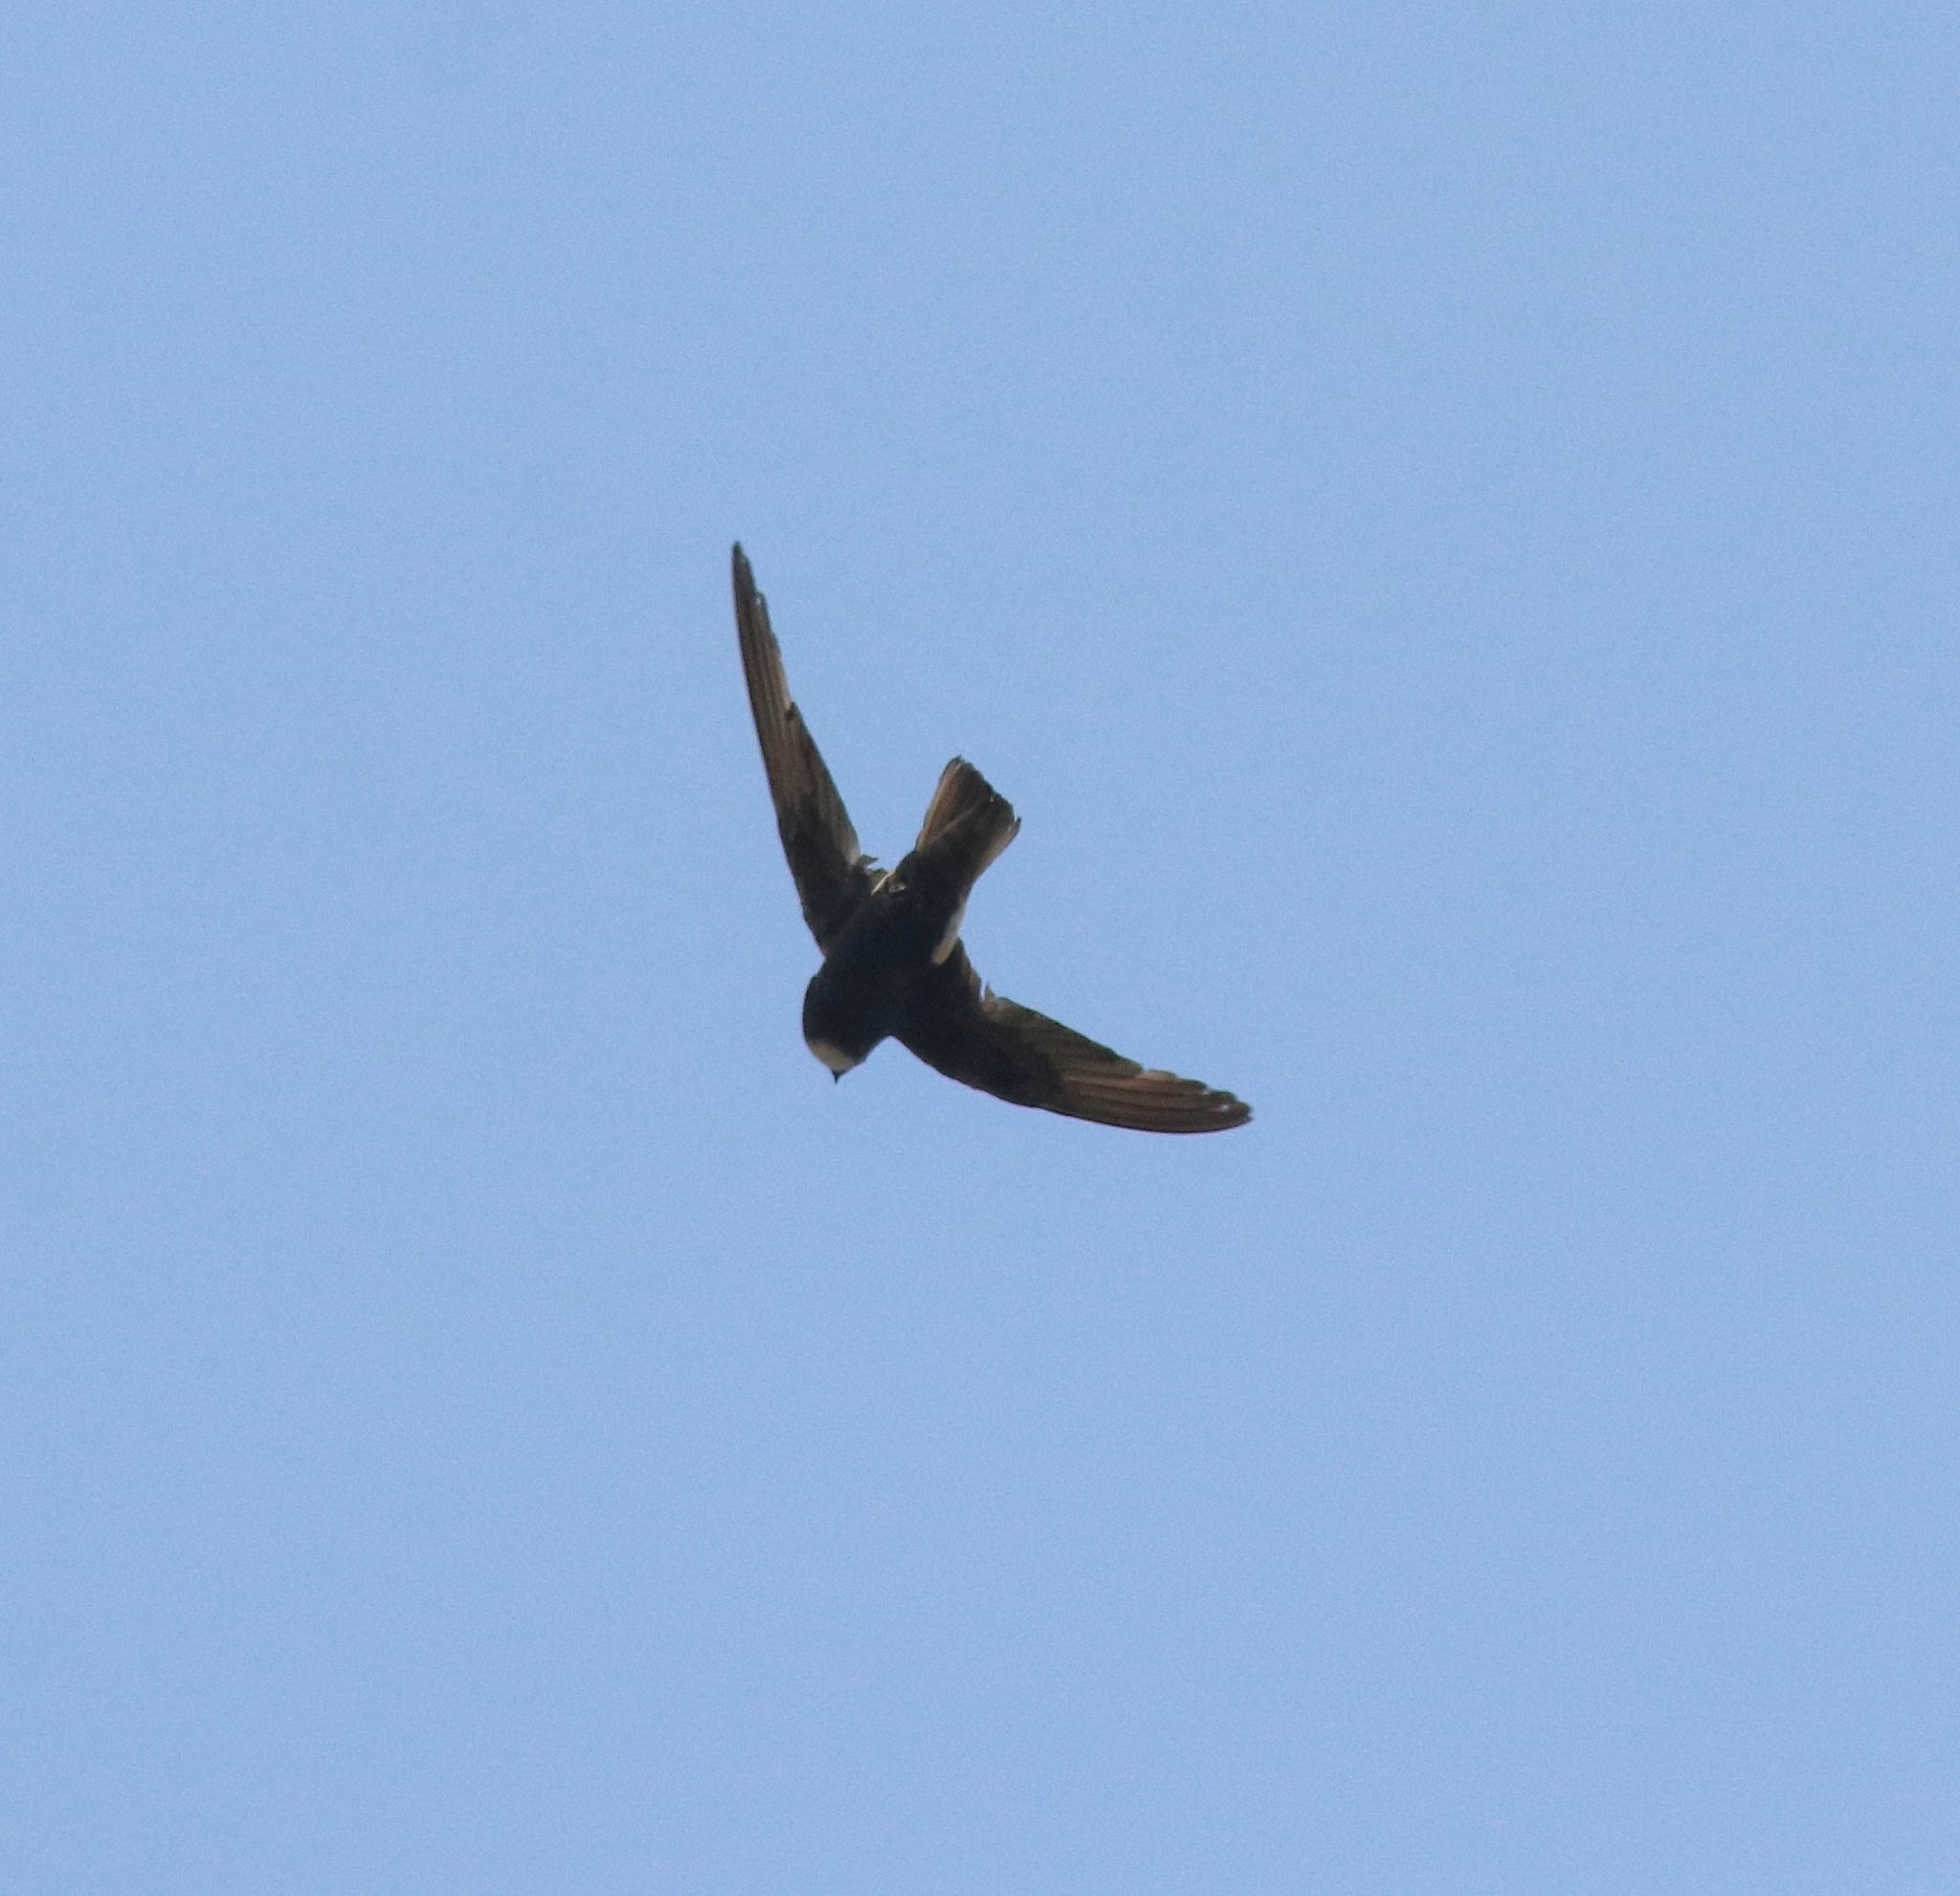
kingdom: Animalia
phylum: Chordata
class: Aves
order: Apodiformes
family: Apodidae
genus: Apus
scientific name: Apus affinis
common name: Little swift
